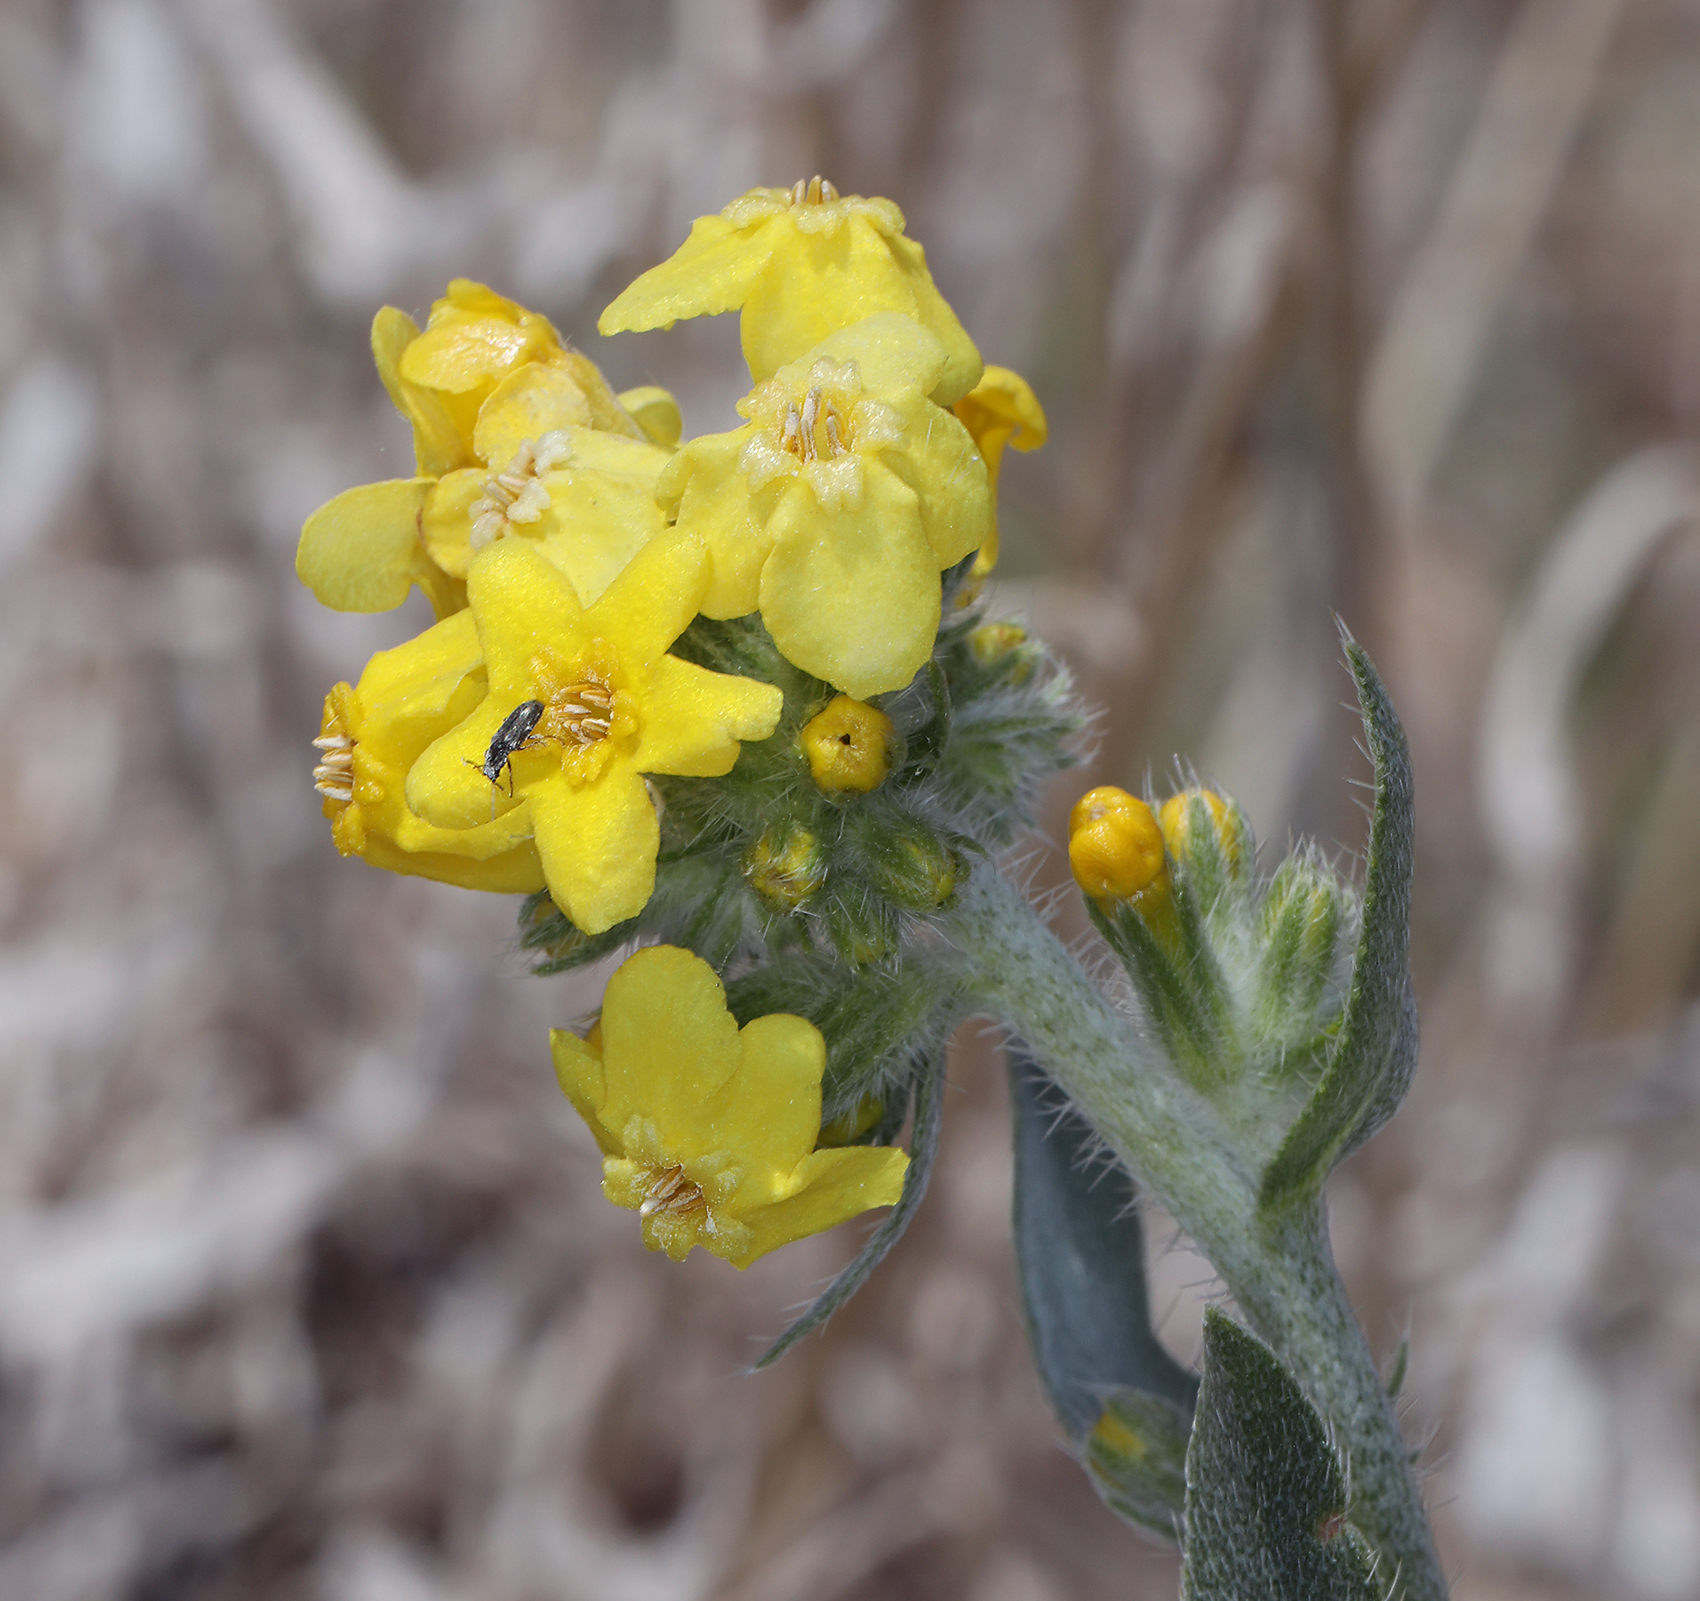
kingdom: Plantae
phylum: Tracheophyta
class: Magnoliopsida
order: Boraginales
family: Boraginaceae
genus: Oreocarya
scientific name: Oreocarya confertiflora
